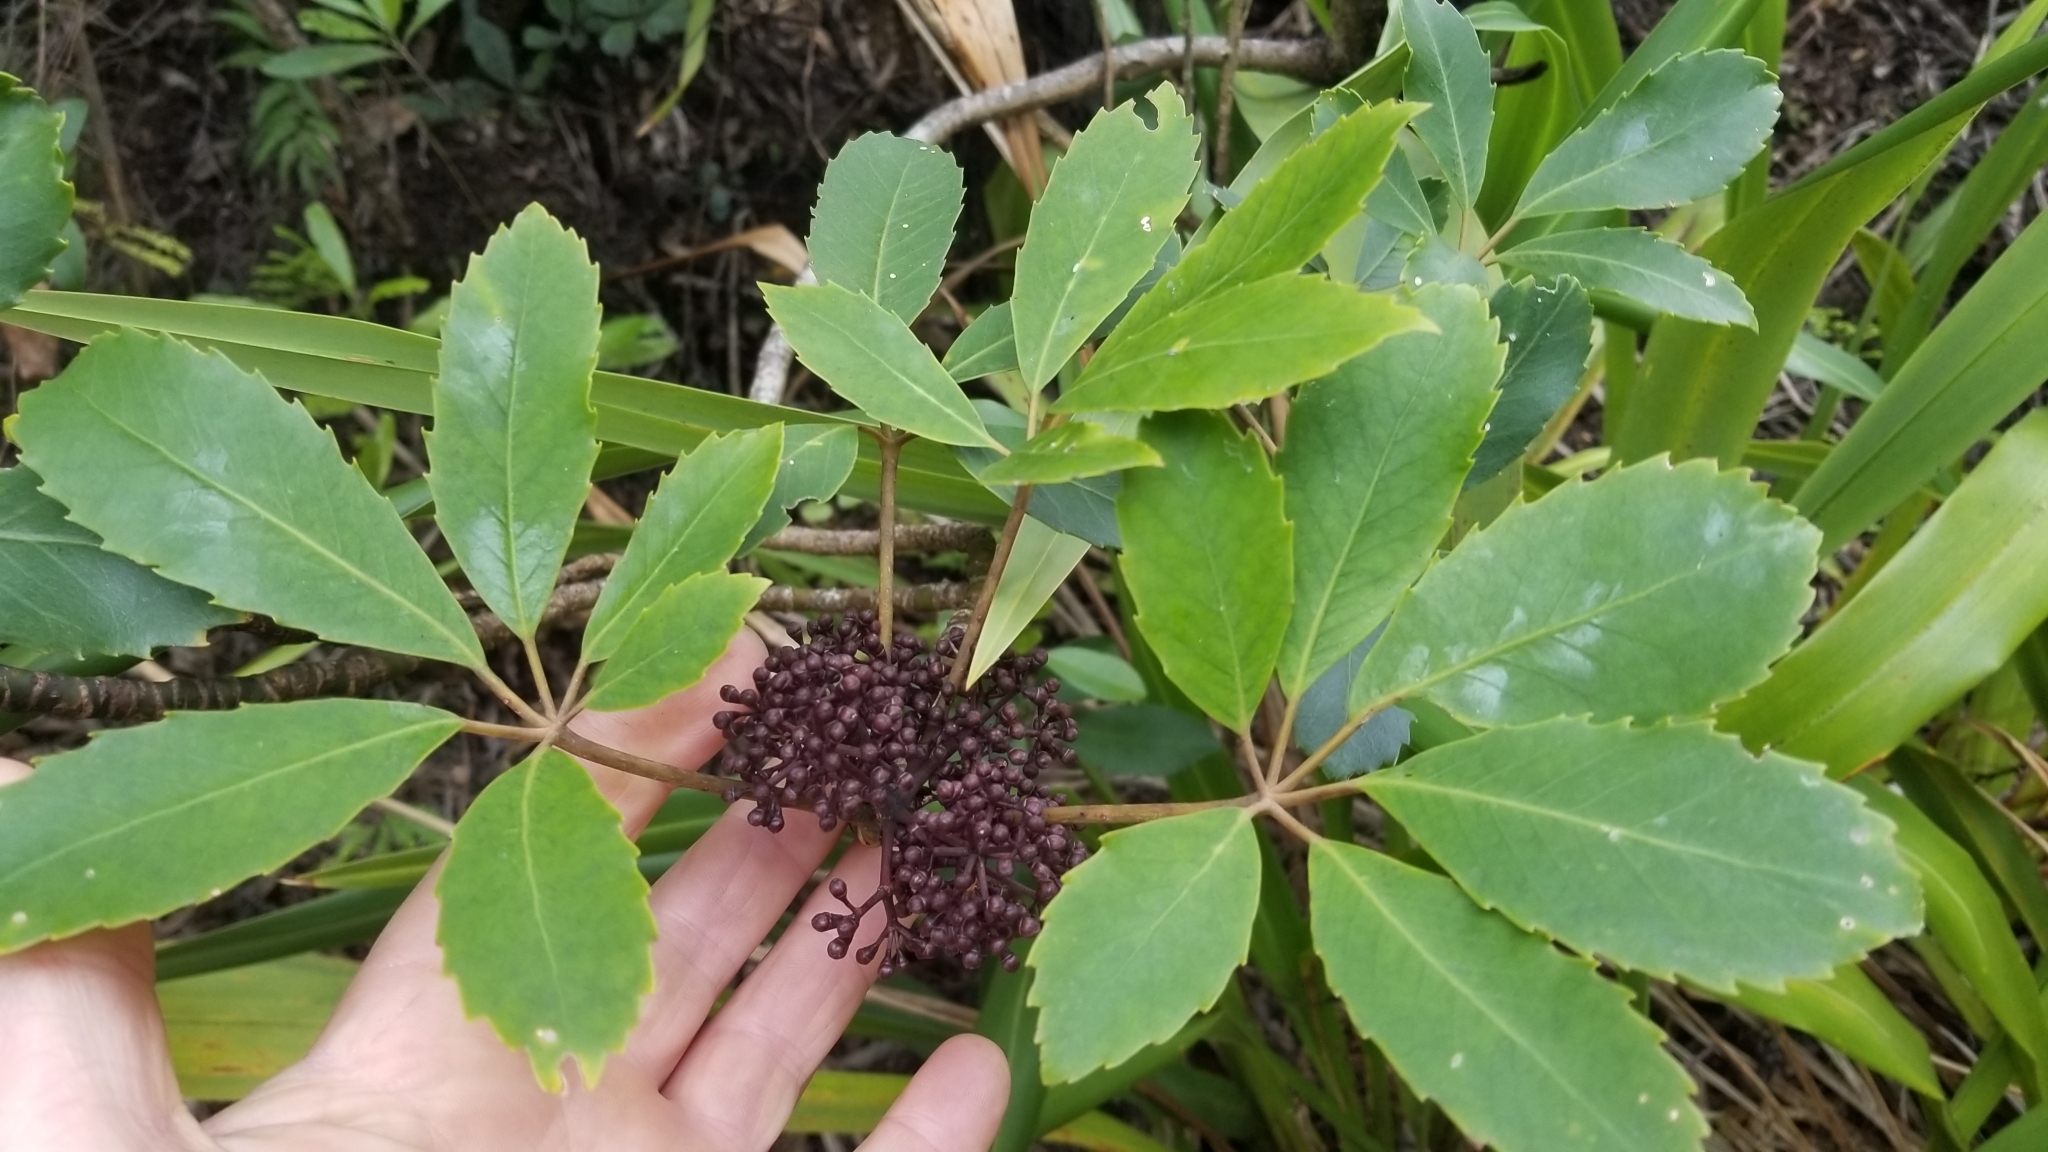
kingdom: Plantae
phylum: Tracheophyta
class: Magnoliopsida
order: Apiales
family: Araliaceae
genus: Neopanax
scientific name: Neopanax arboreus
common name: Five-fingers
